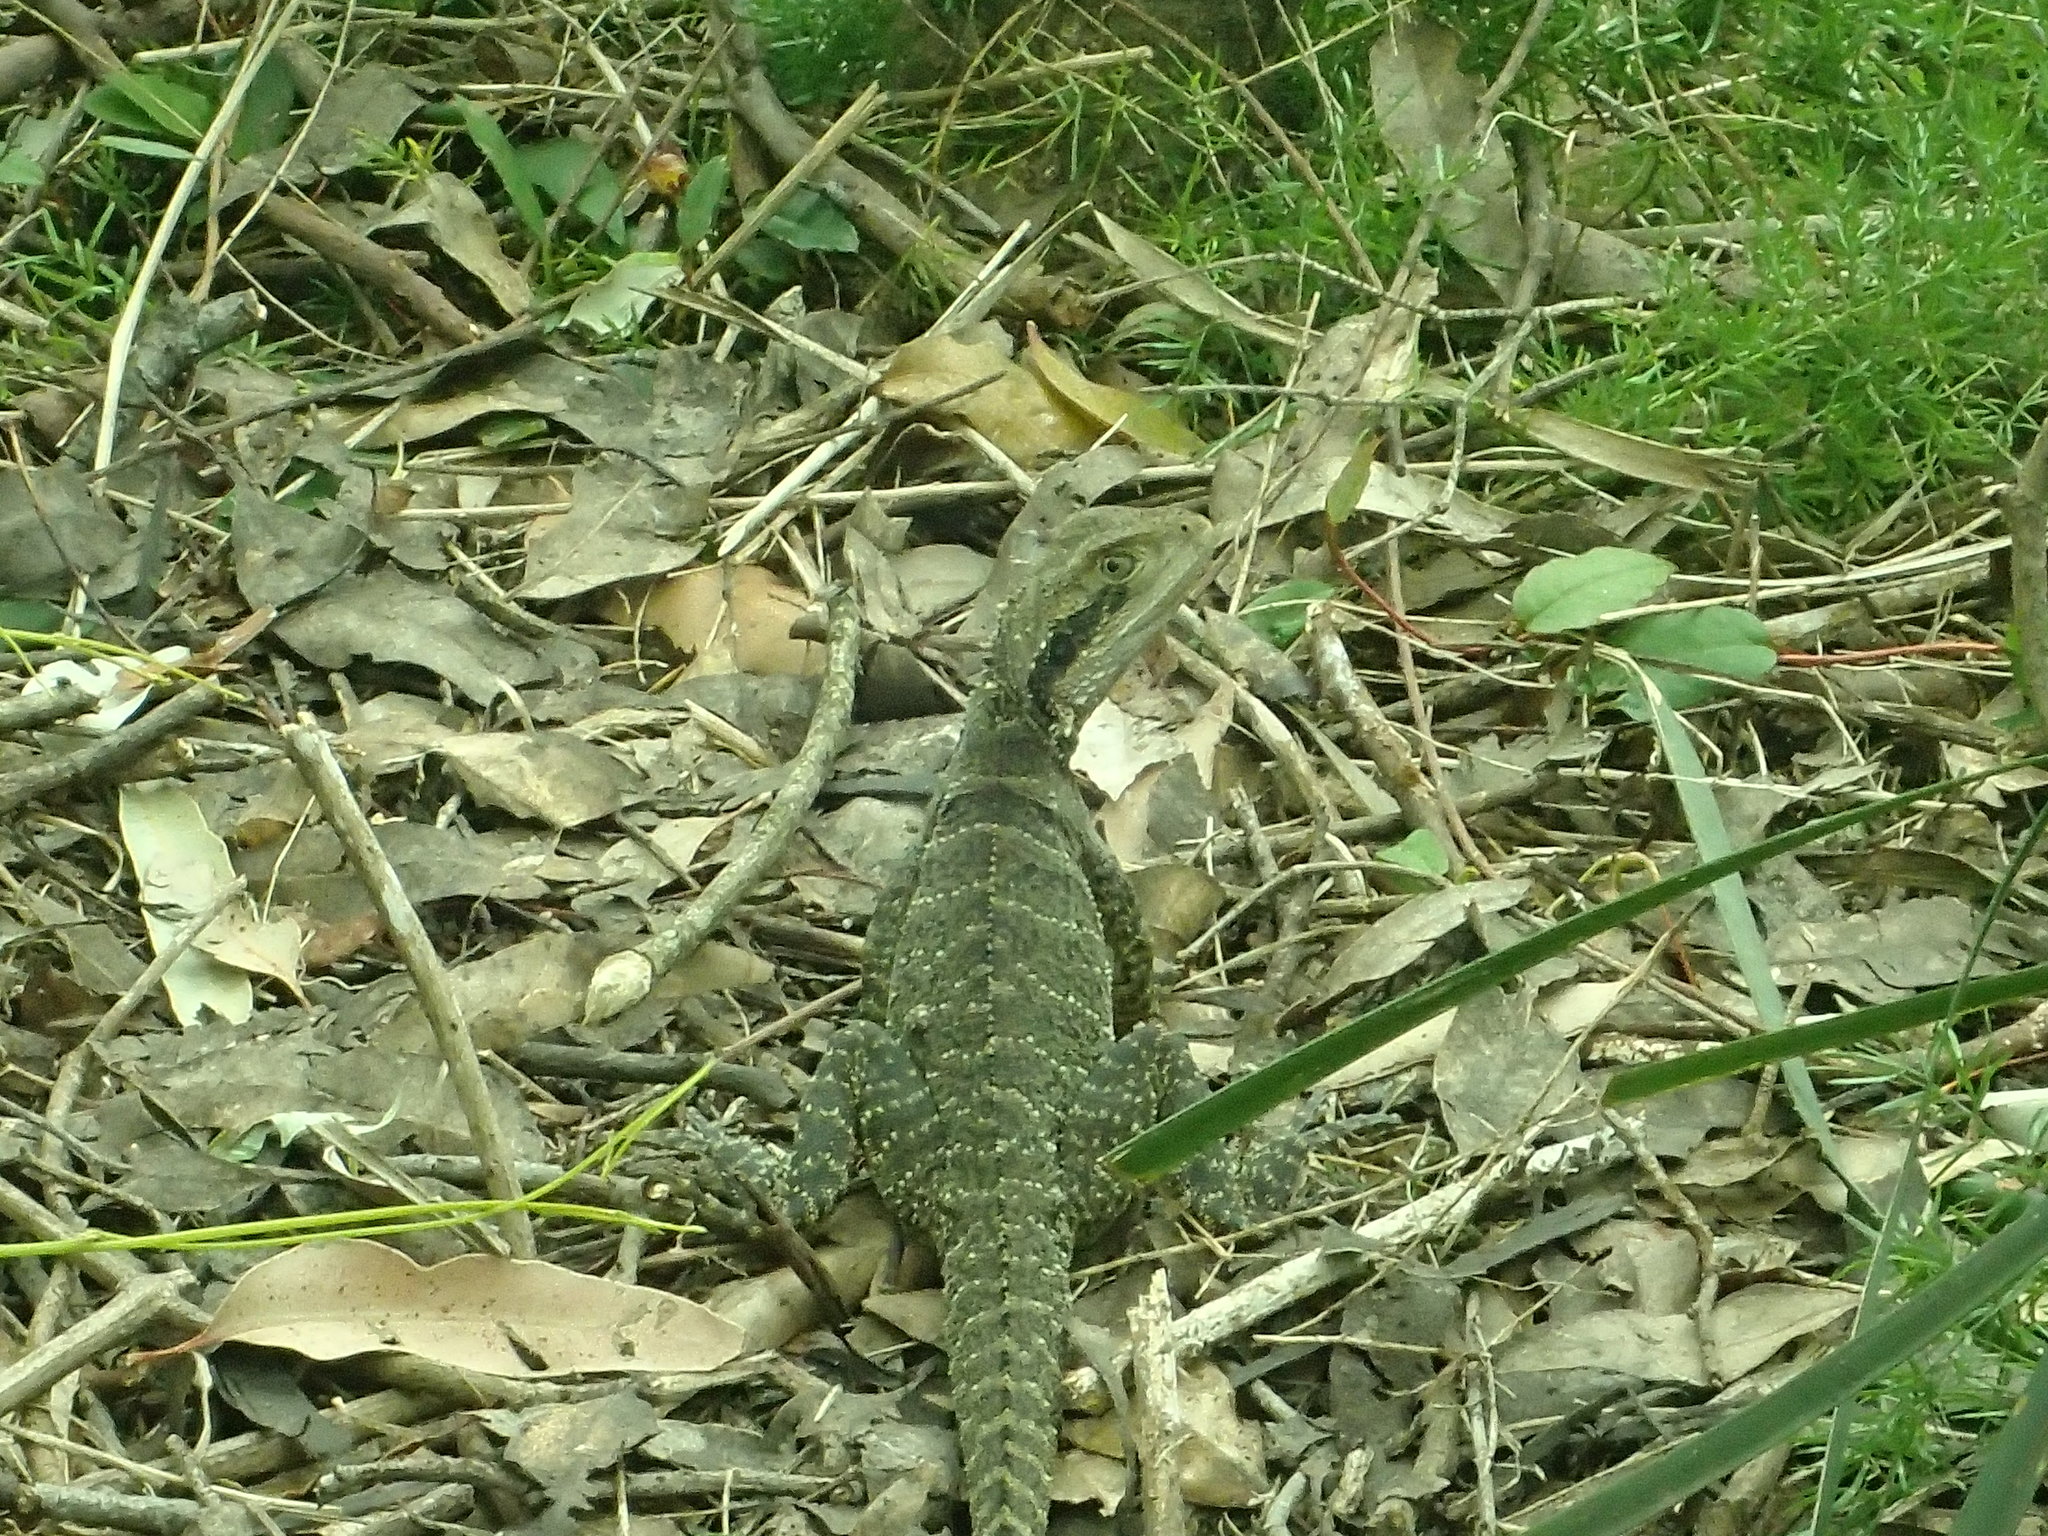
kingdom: Animalia
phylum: Chordata
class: Squamata
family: Agamidae
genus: Intellagama
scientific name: Intellagama lesueurii
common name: Eastern water dragon
